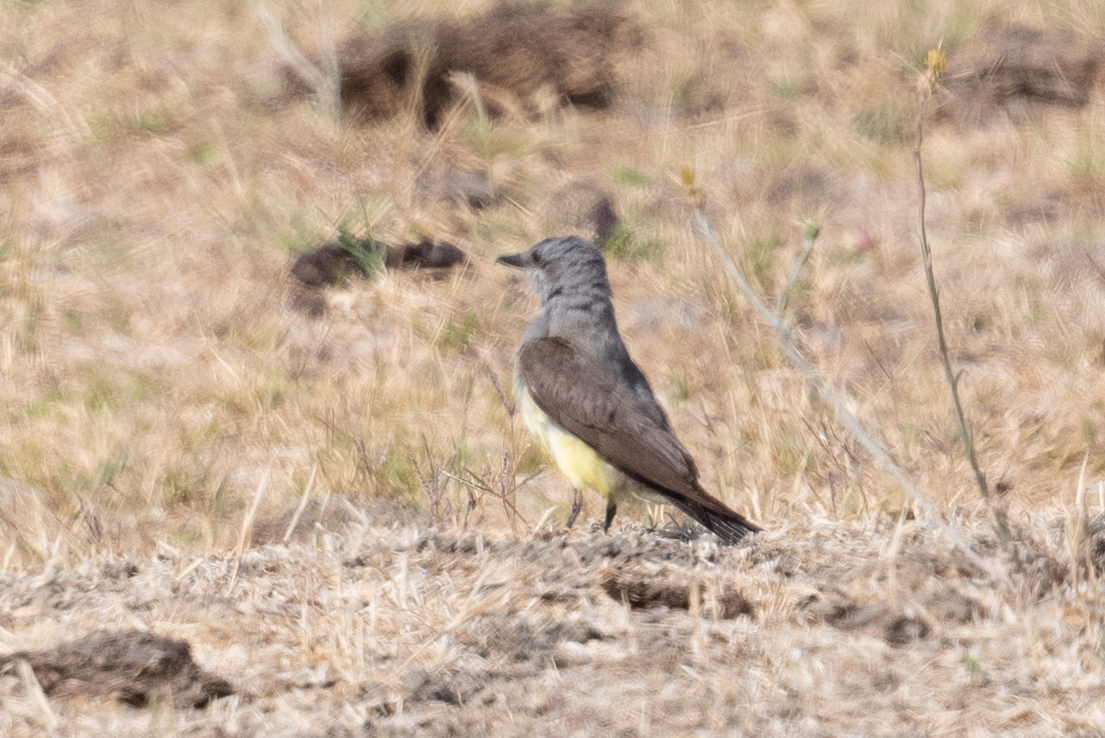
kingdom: Animalia
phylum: Chordata
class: Aves
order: Passeriformes
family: Tyrannidae
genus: Tyrannus
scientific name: Tyrannus verticalis
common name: Western kingbird
